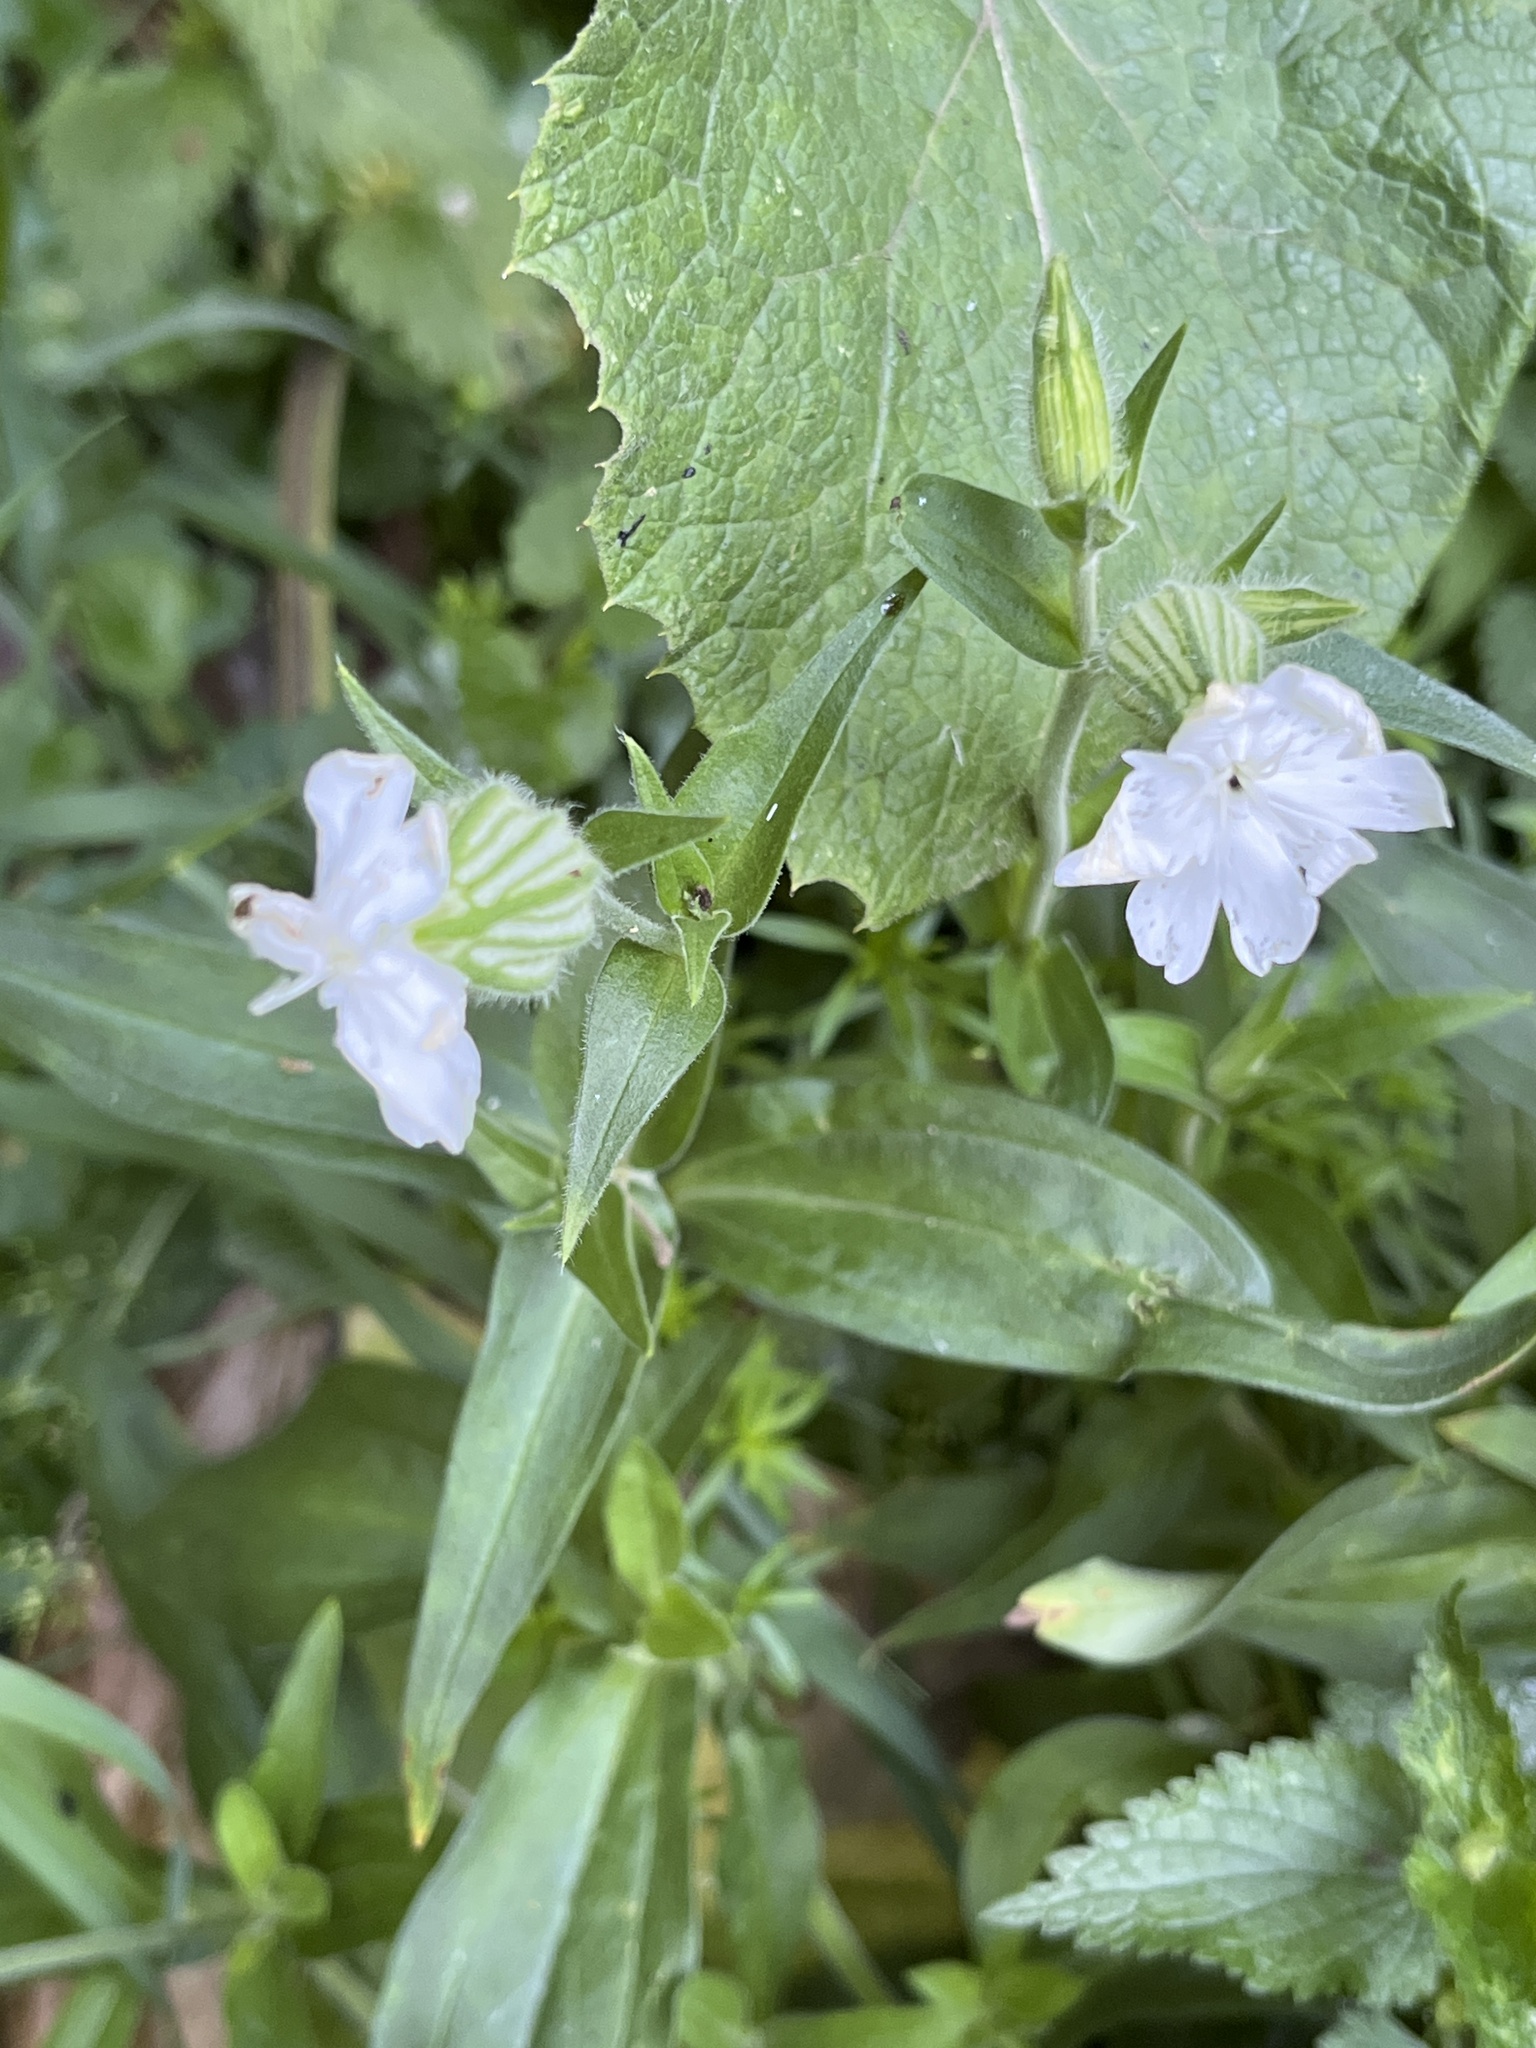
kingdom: Plantae
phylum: Tracheophyta
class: Magnoliopsida
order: Caryophyllales
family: Caryophyllaceae
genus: Silene
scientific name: Silene latifolia
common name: White campion
